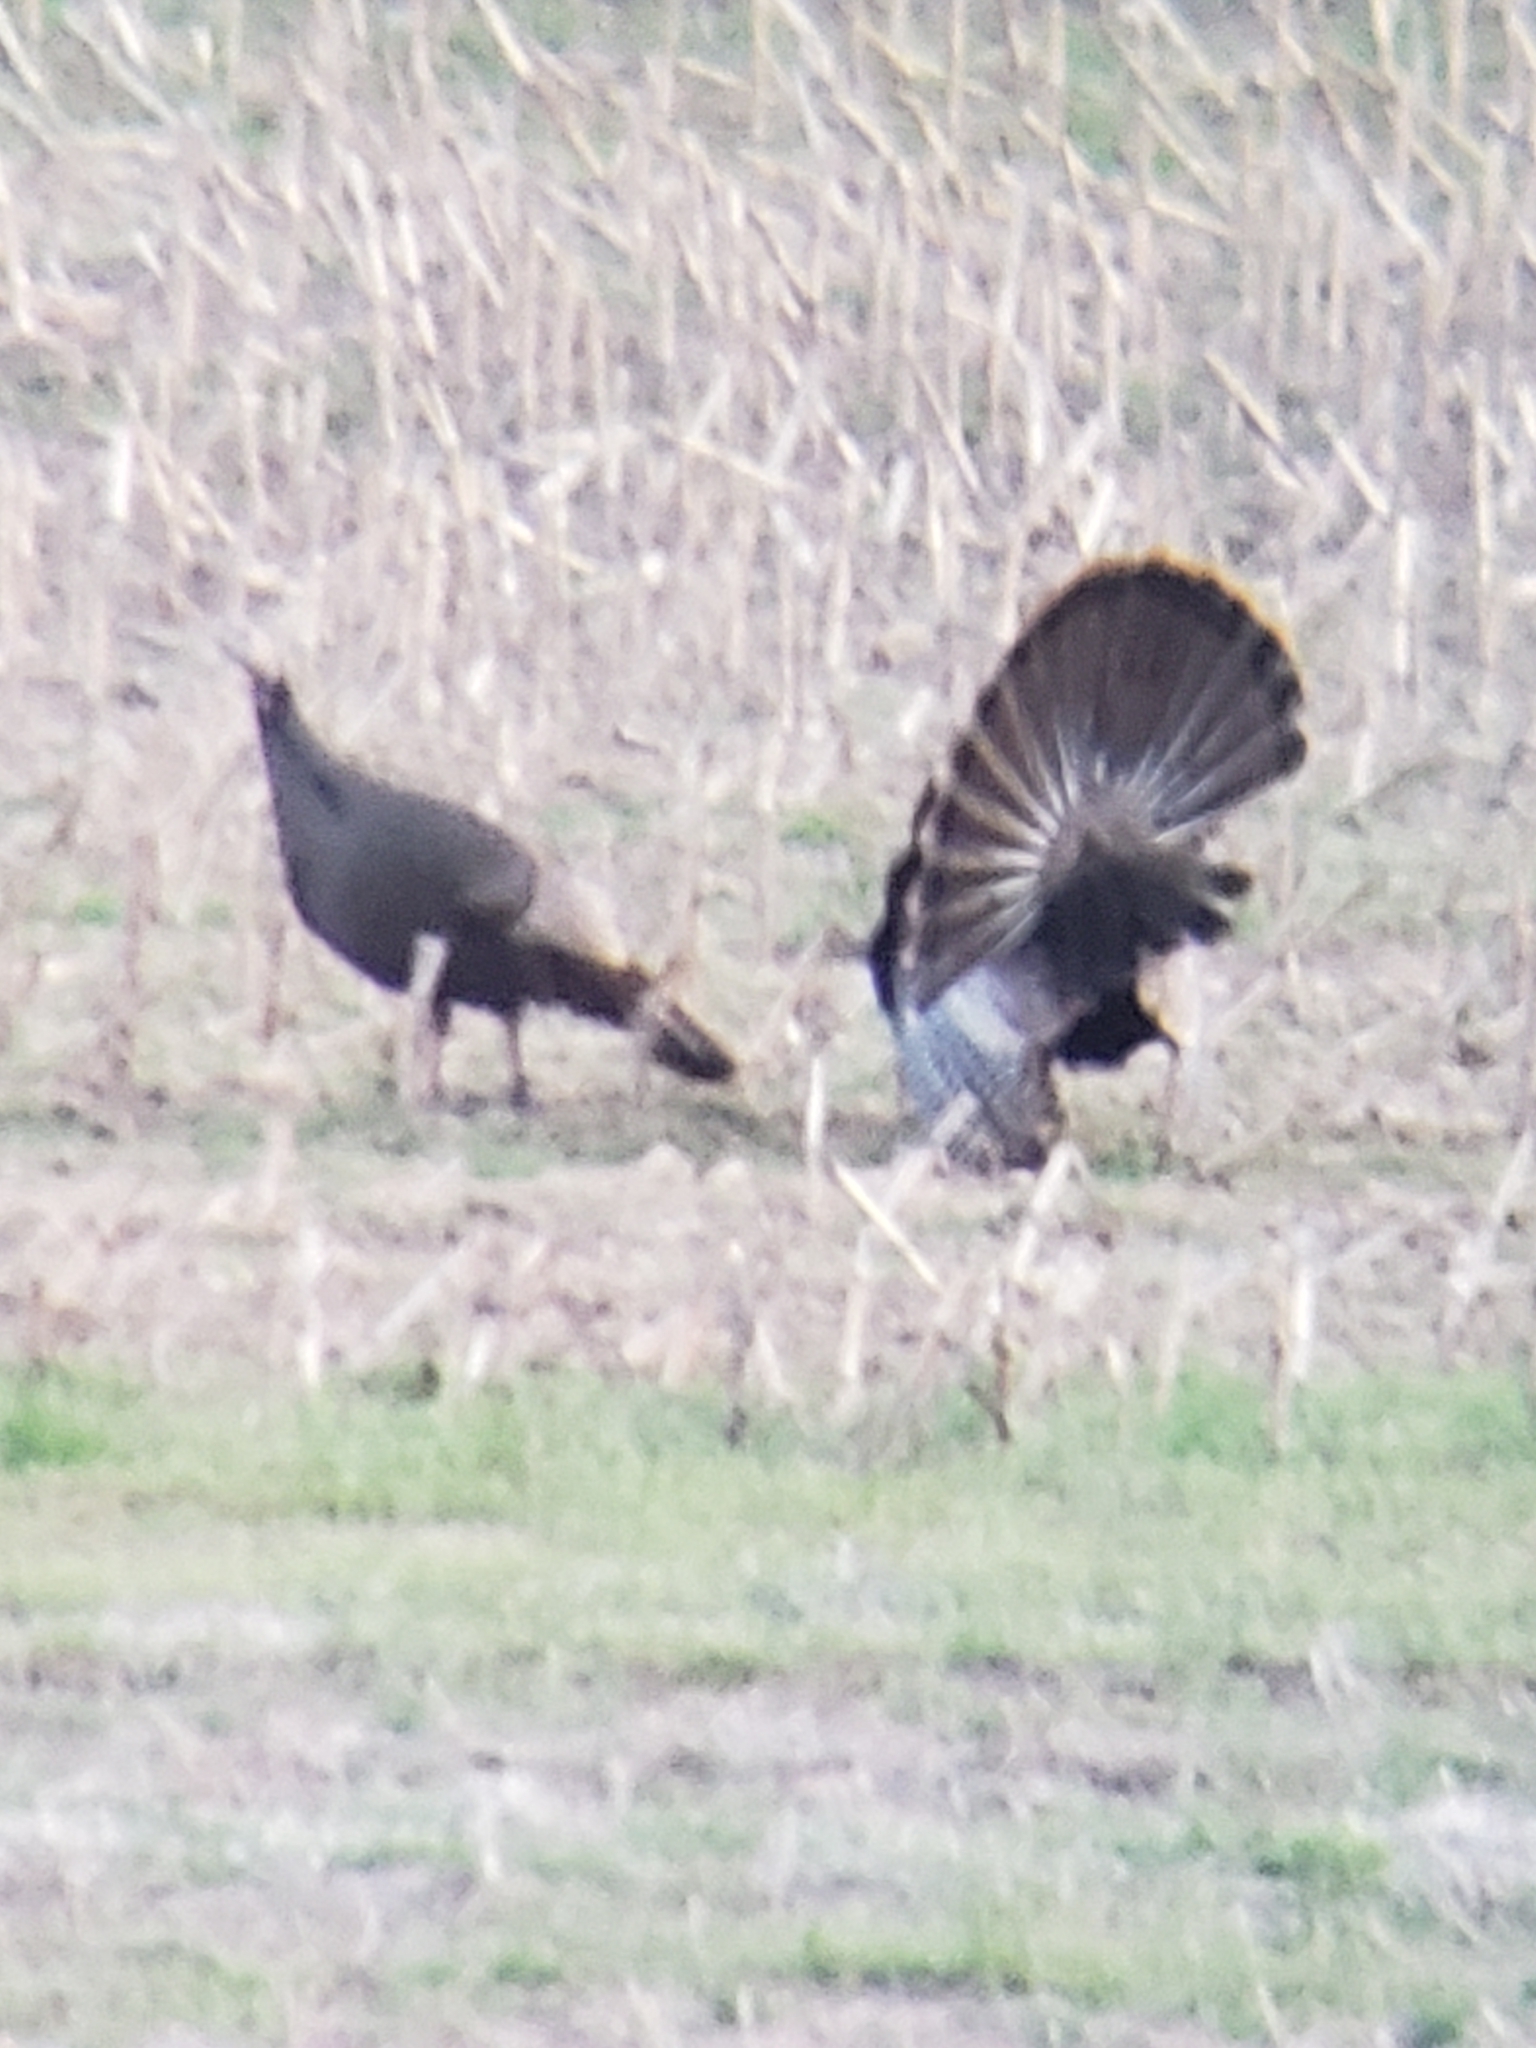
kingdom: Animalia
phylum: Chordata
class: Aves
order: Galliformes
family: Phasianidae
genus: Meleagris
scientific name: Meleagris gallopavo
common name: Wild turkey
